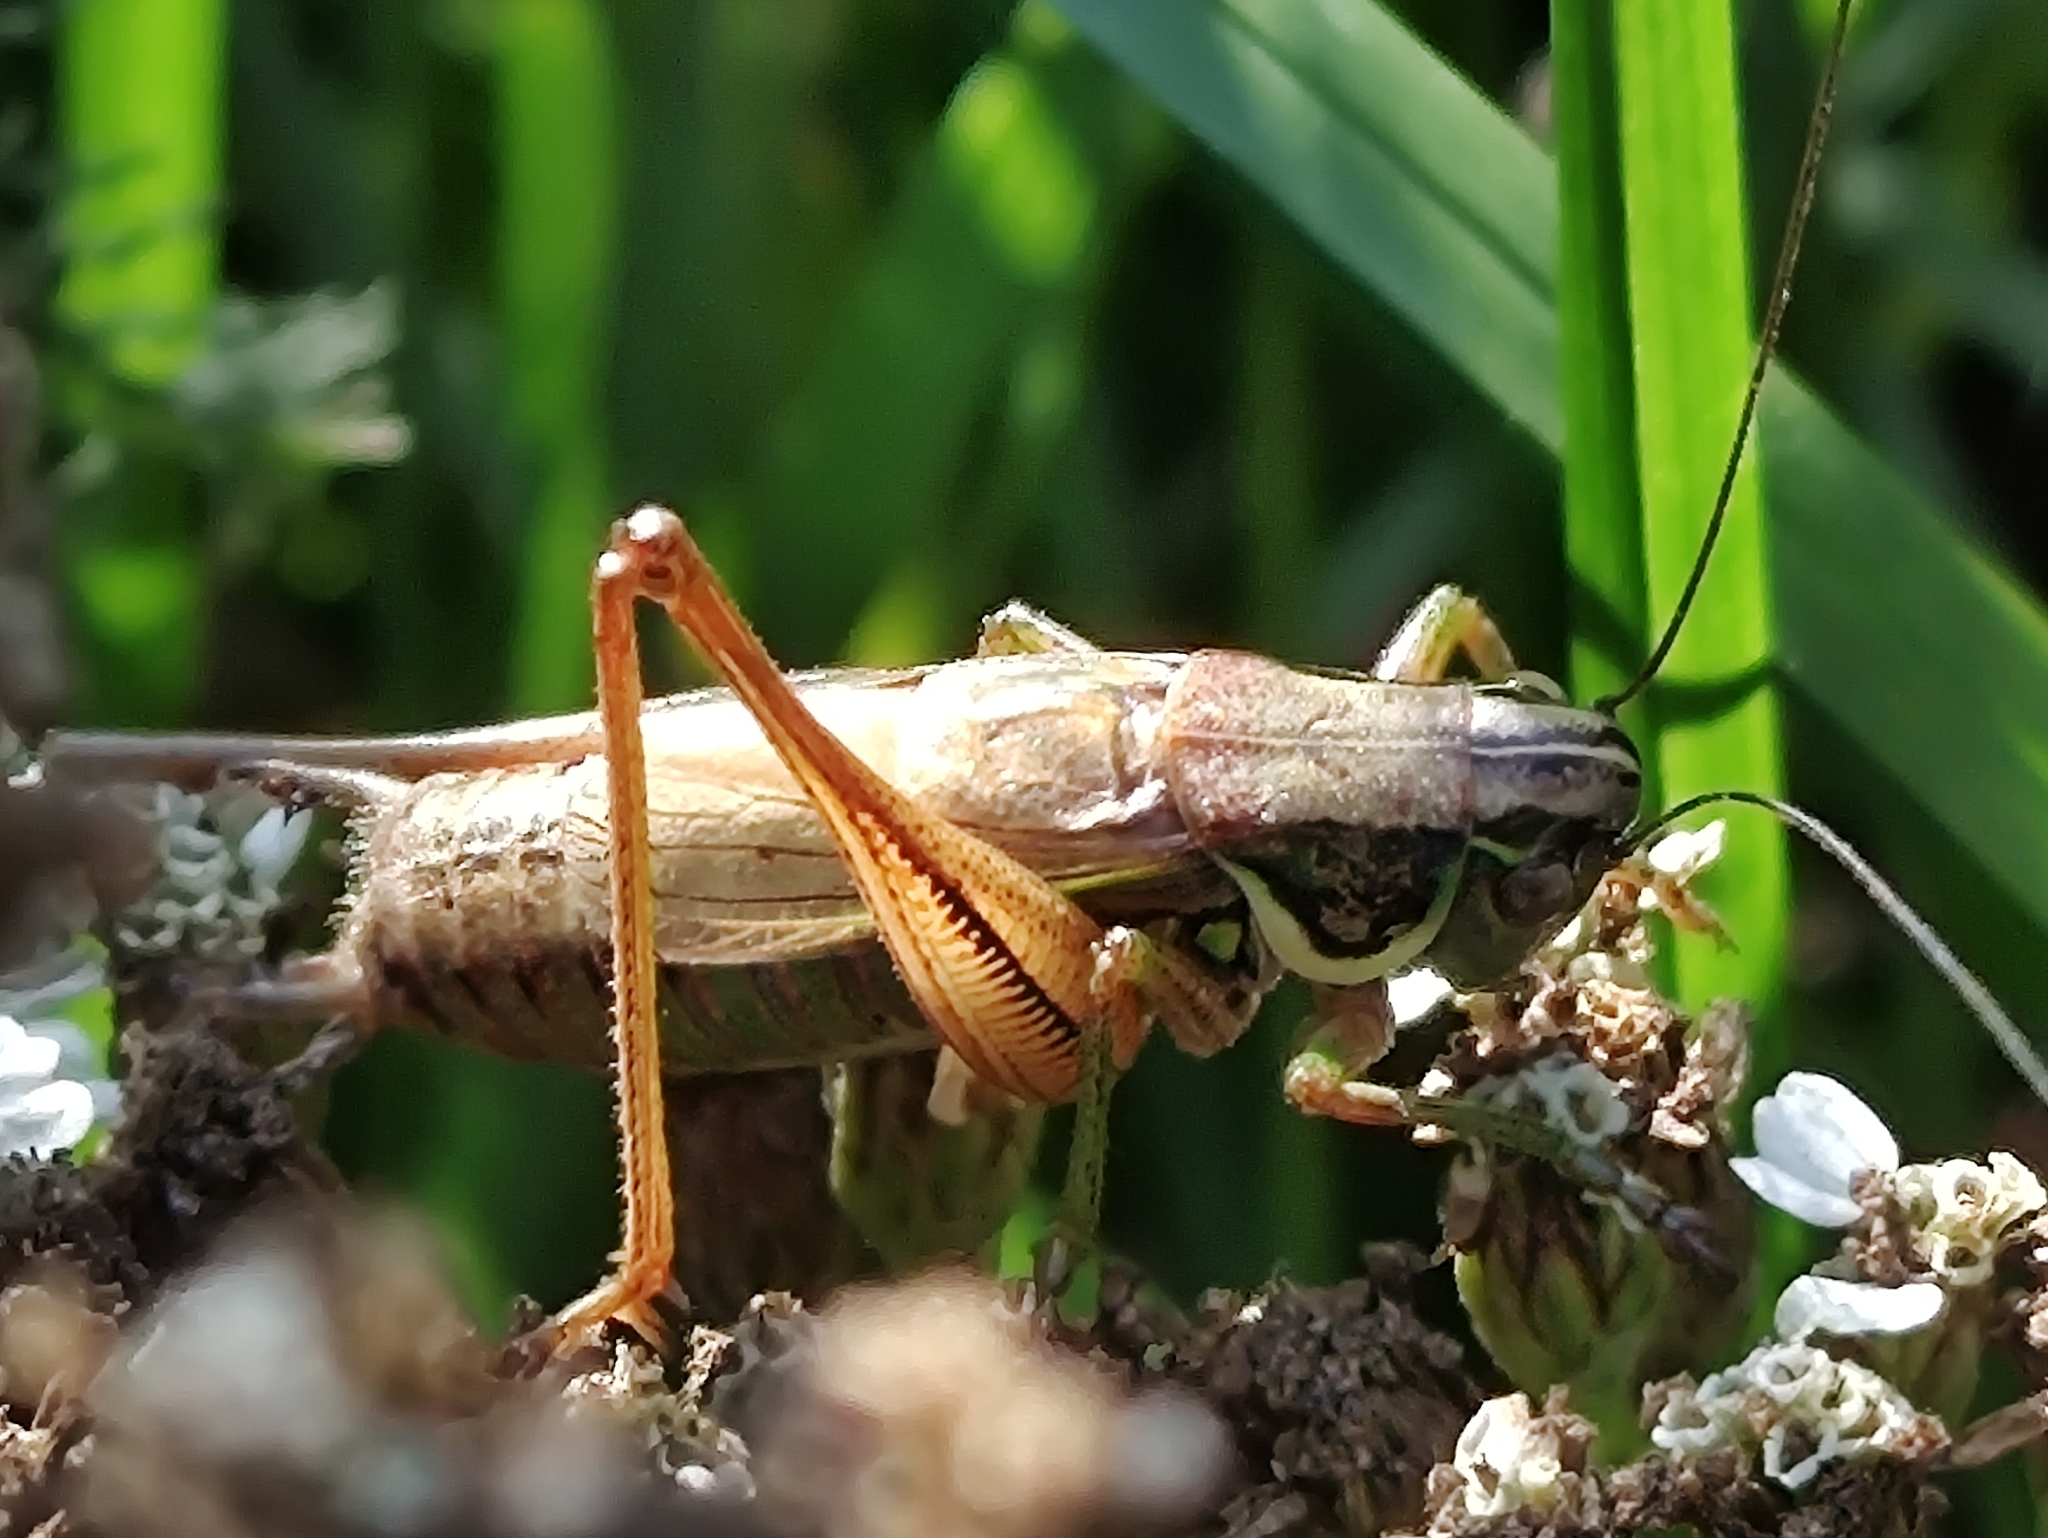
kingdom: Animalia
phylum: Arthropoda
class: Insecta
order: Orthoptera
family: Tettigoniidae
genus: Roeseliana
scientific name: Roeseliana roeselii
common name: Roesel's bush cricket
